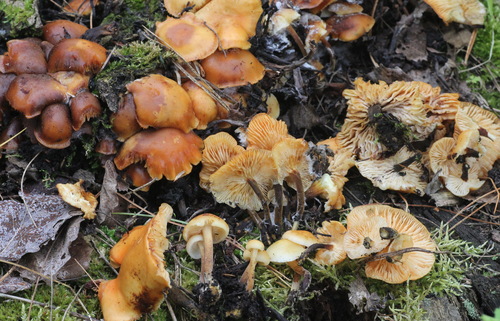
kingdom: Fungi
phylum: Basidiomycota
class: Agaricomycetes
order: Agaricales
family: Physalacriaceae
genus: Flammulina
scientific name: Flammulina populicola
